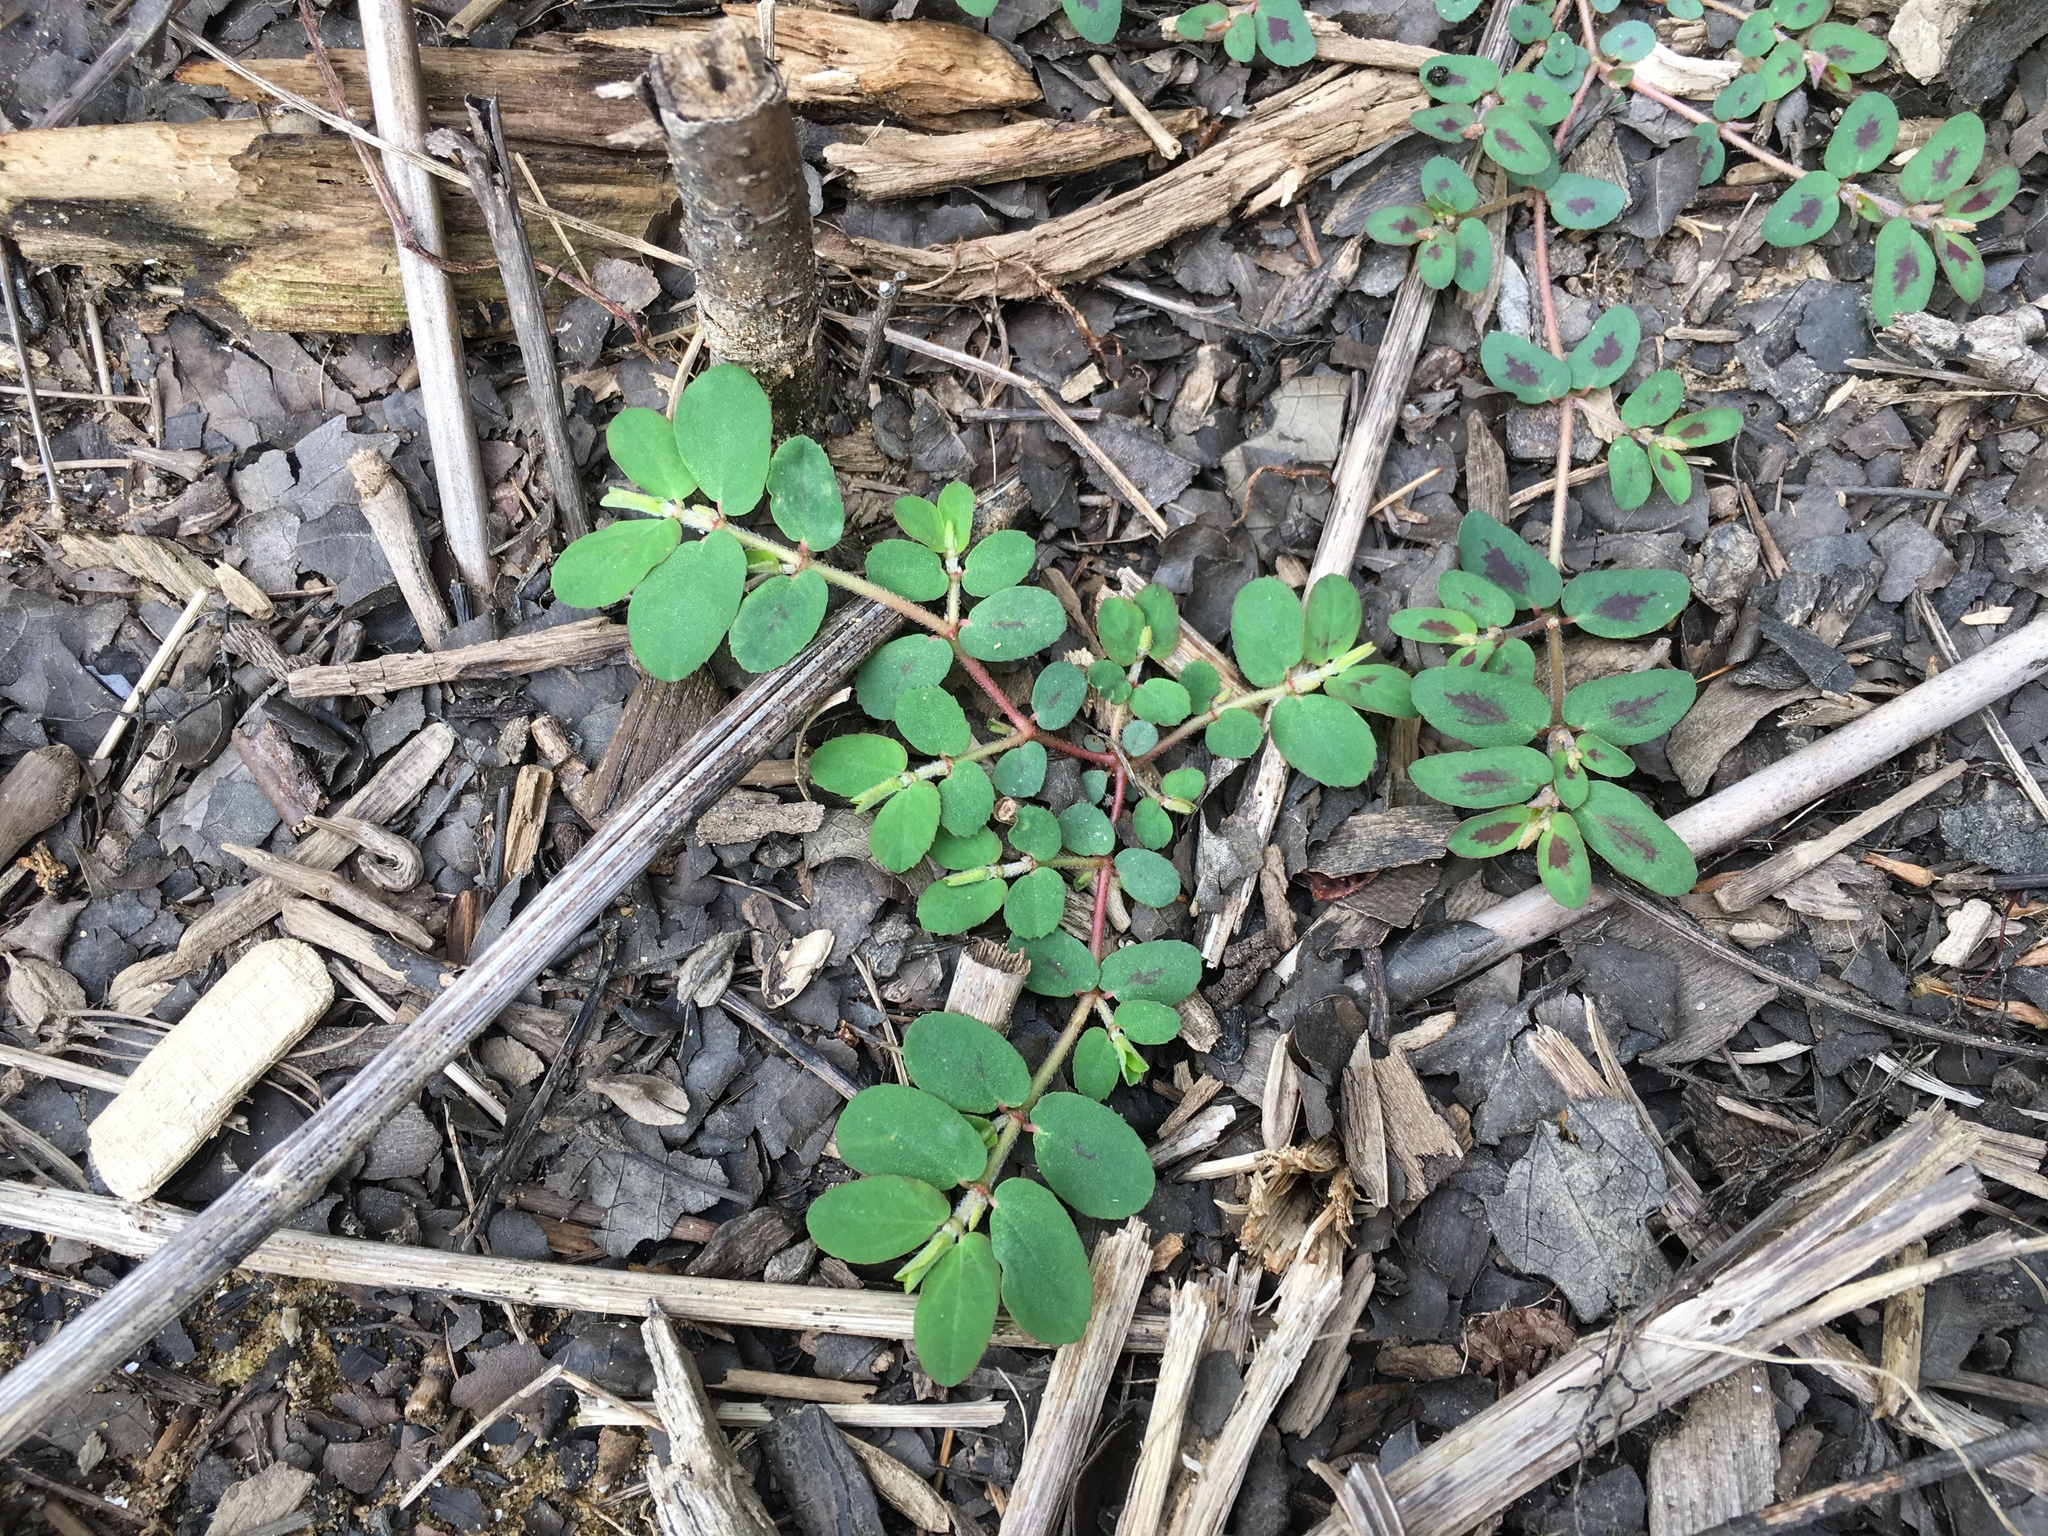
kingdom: Plantae
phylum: Tracheophyta
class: Magnoliopsida
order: Malpighiales
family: Euphorbiaceae
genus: Euphorbia
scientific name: Euphorbia maculata
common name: Spotted spurge
